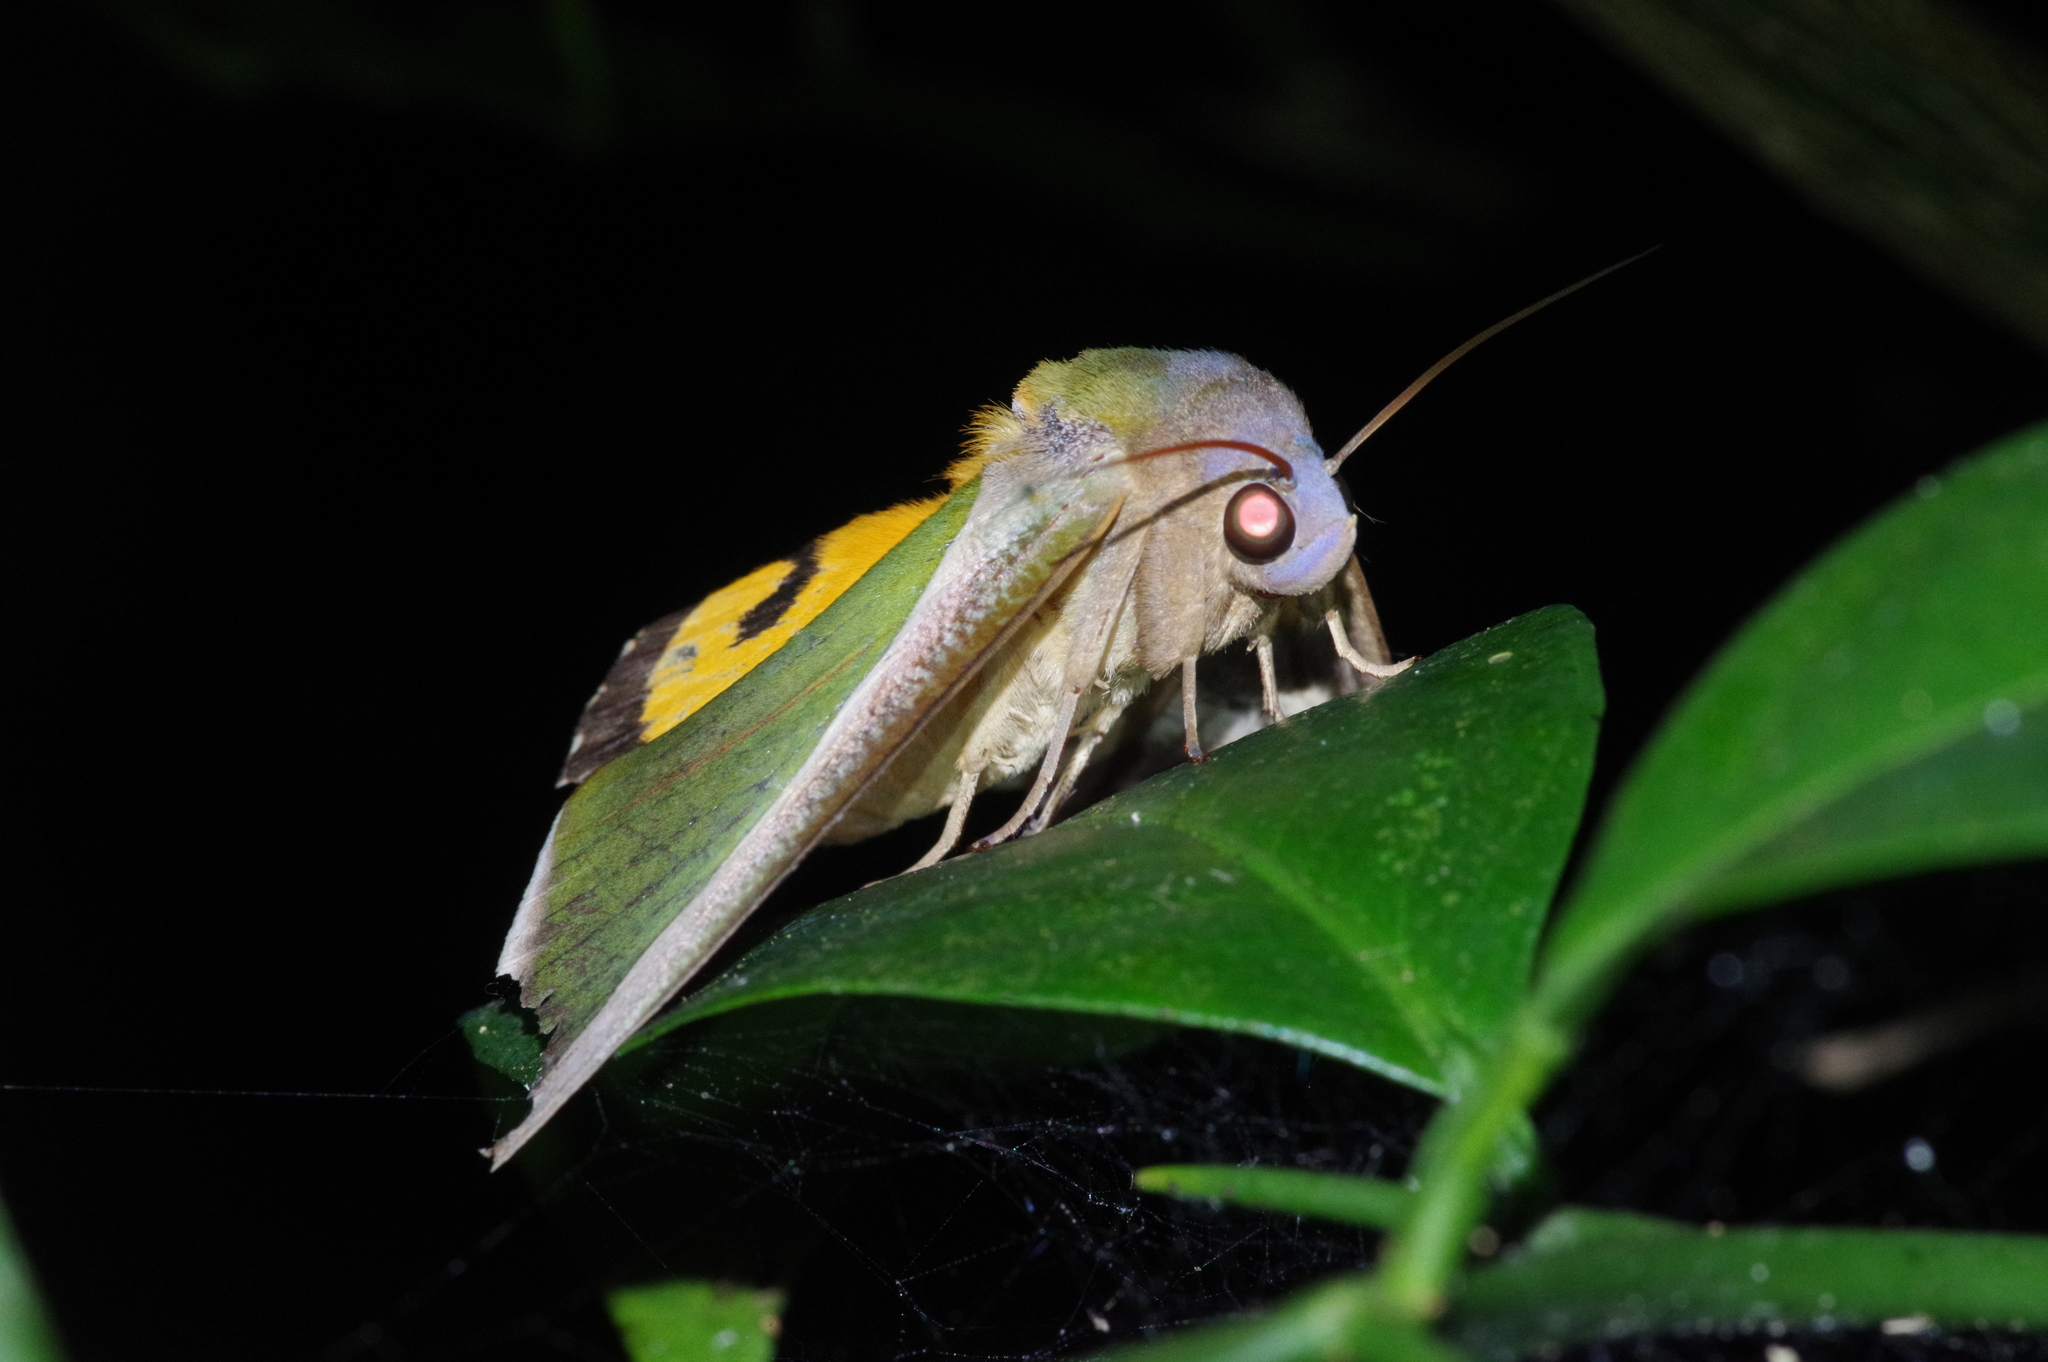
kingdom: Animalia
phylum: Arthropoda
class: Insecta
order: Lepidoptera
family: Erebidae
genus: Eudocima
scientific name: Eudocima salaminia
